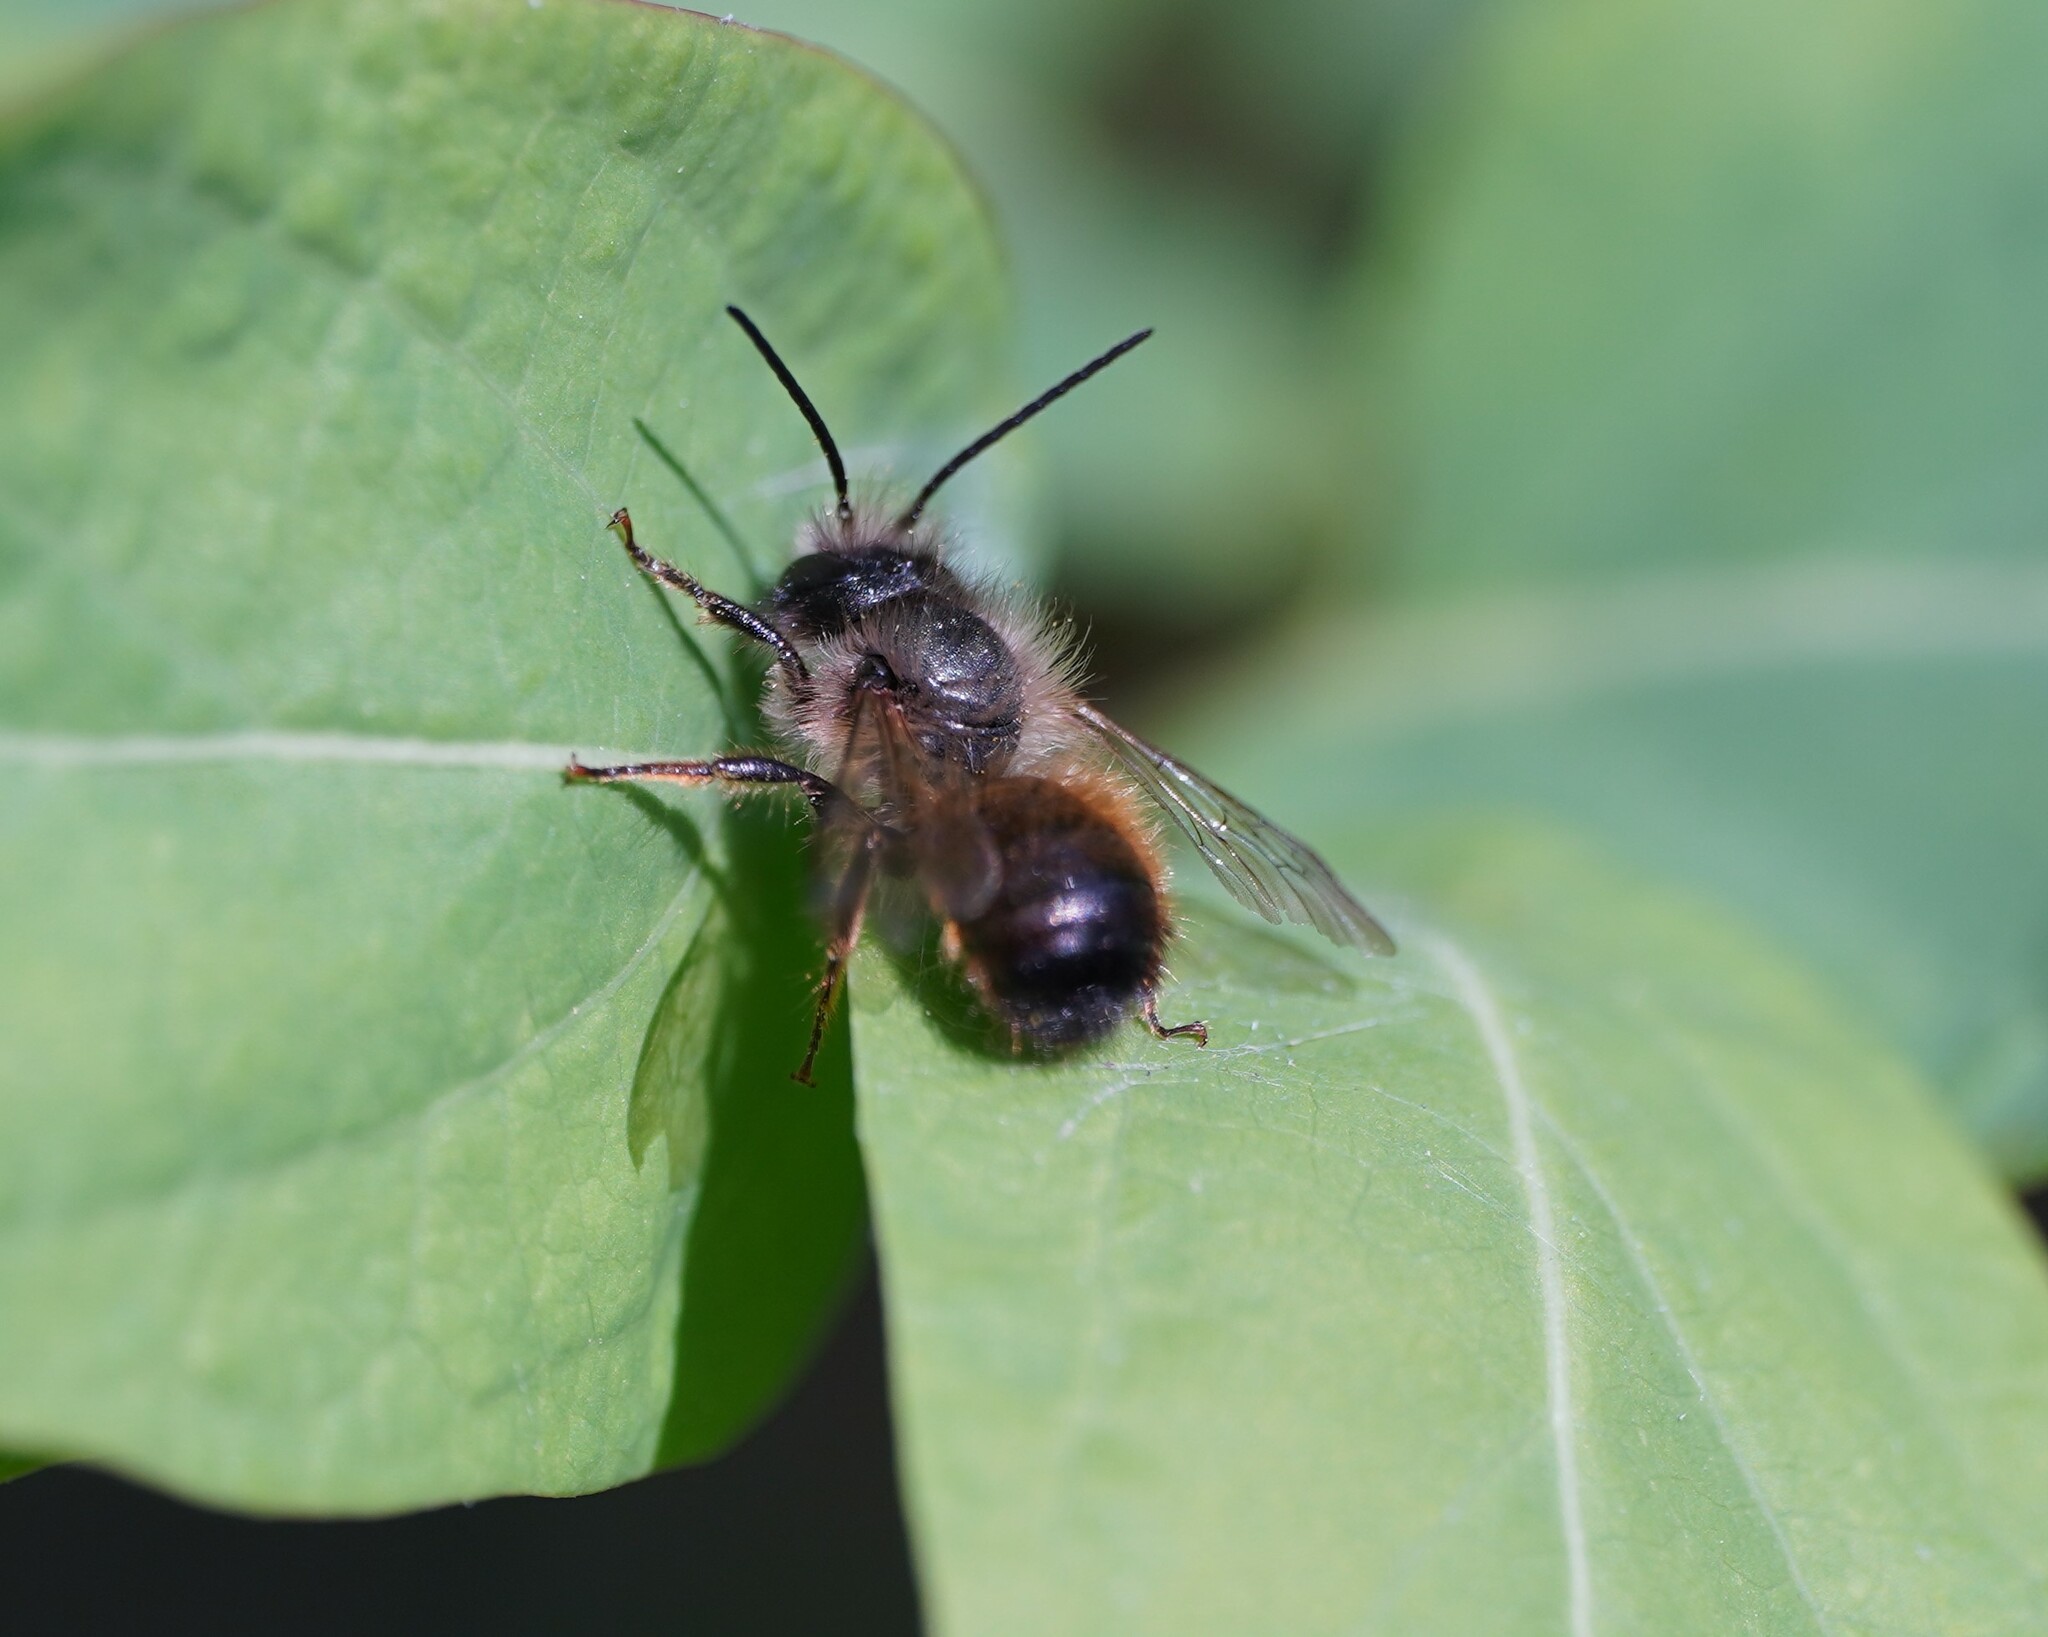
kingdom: Animalia
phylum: Arthropoda
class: Insecta
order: Hymenoptera
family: Megachilidae
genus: Osmia
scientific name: Osmia bicornis
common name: Red mason bee
